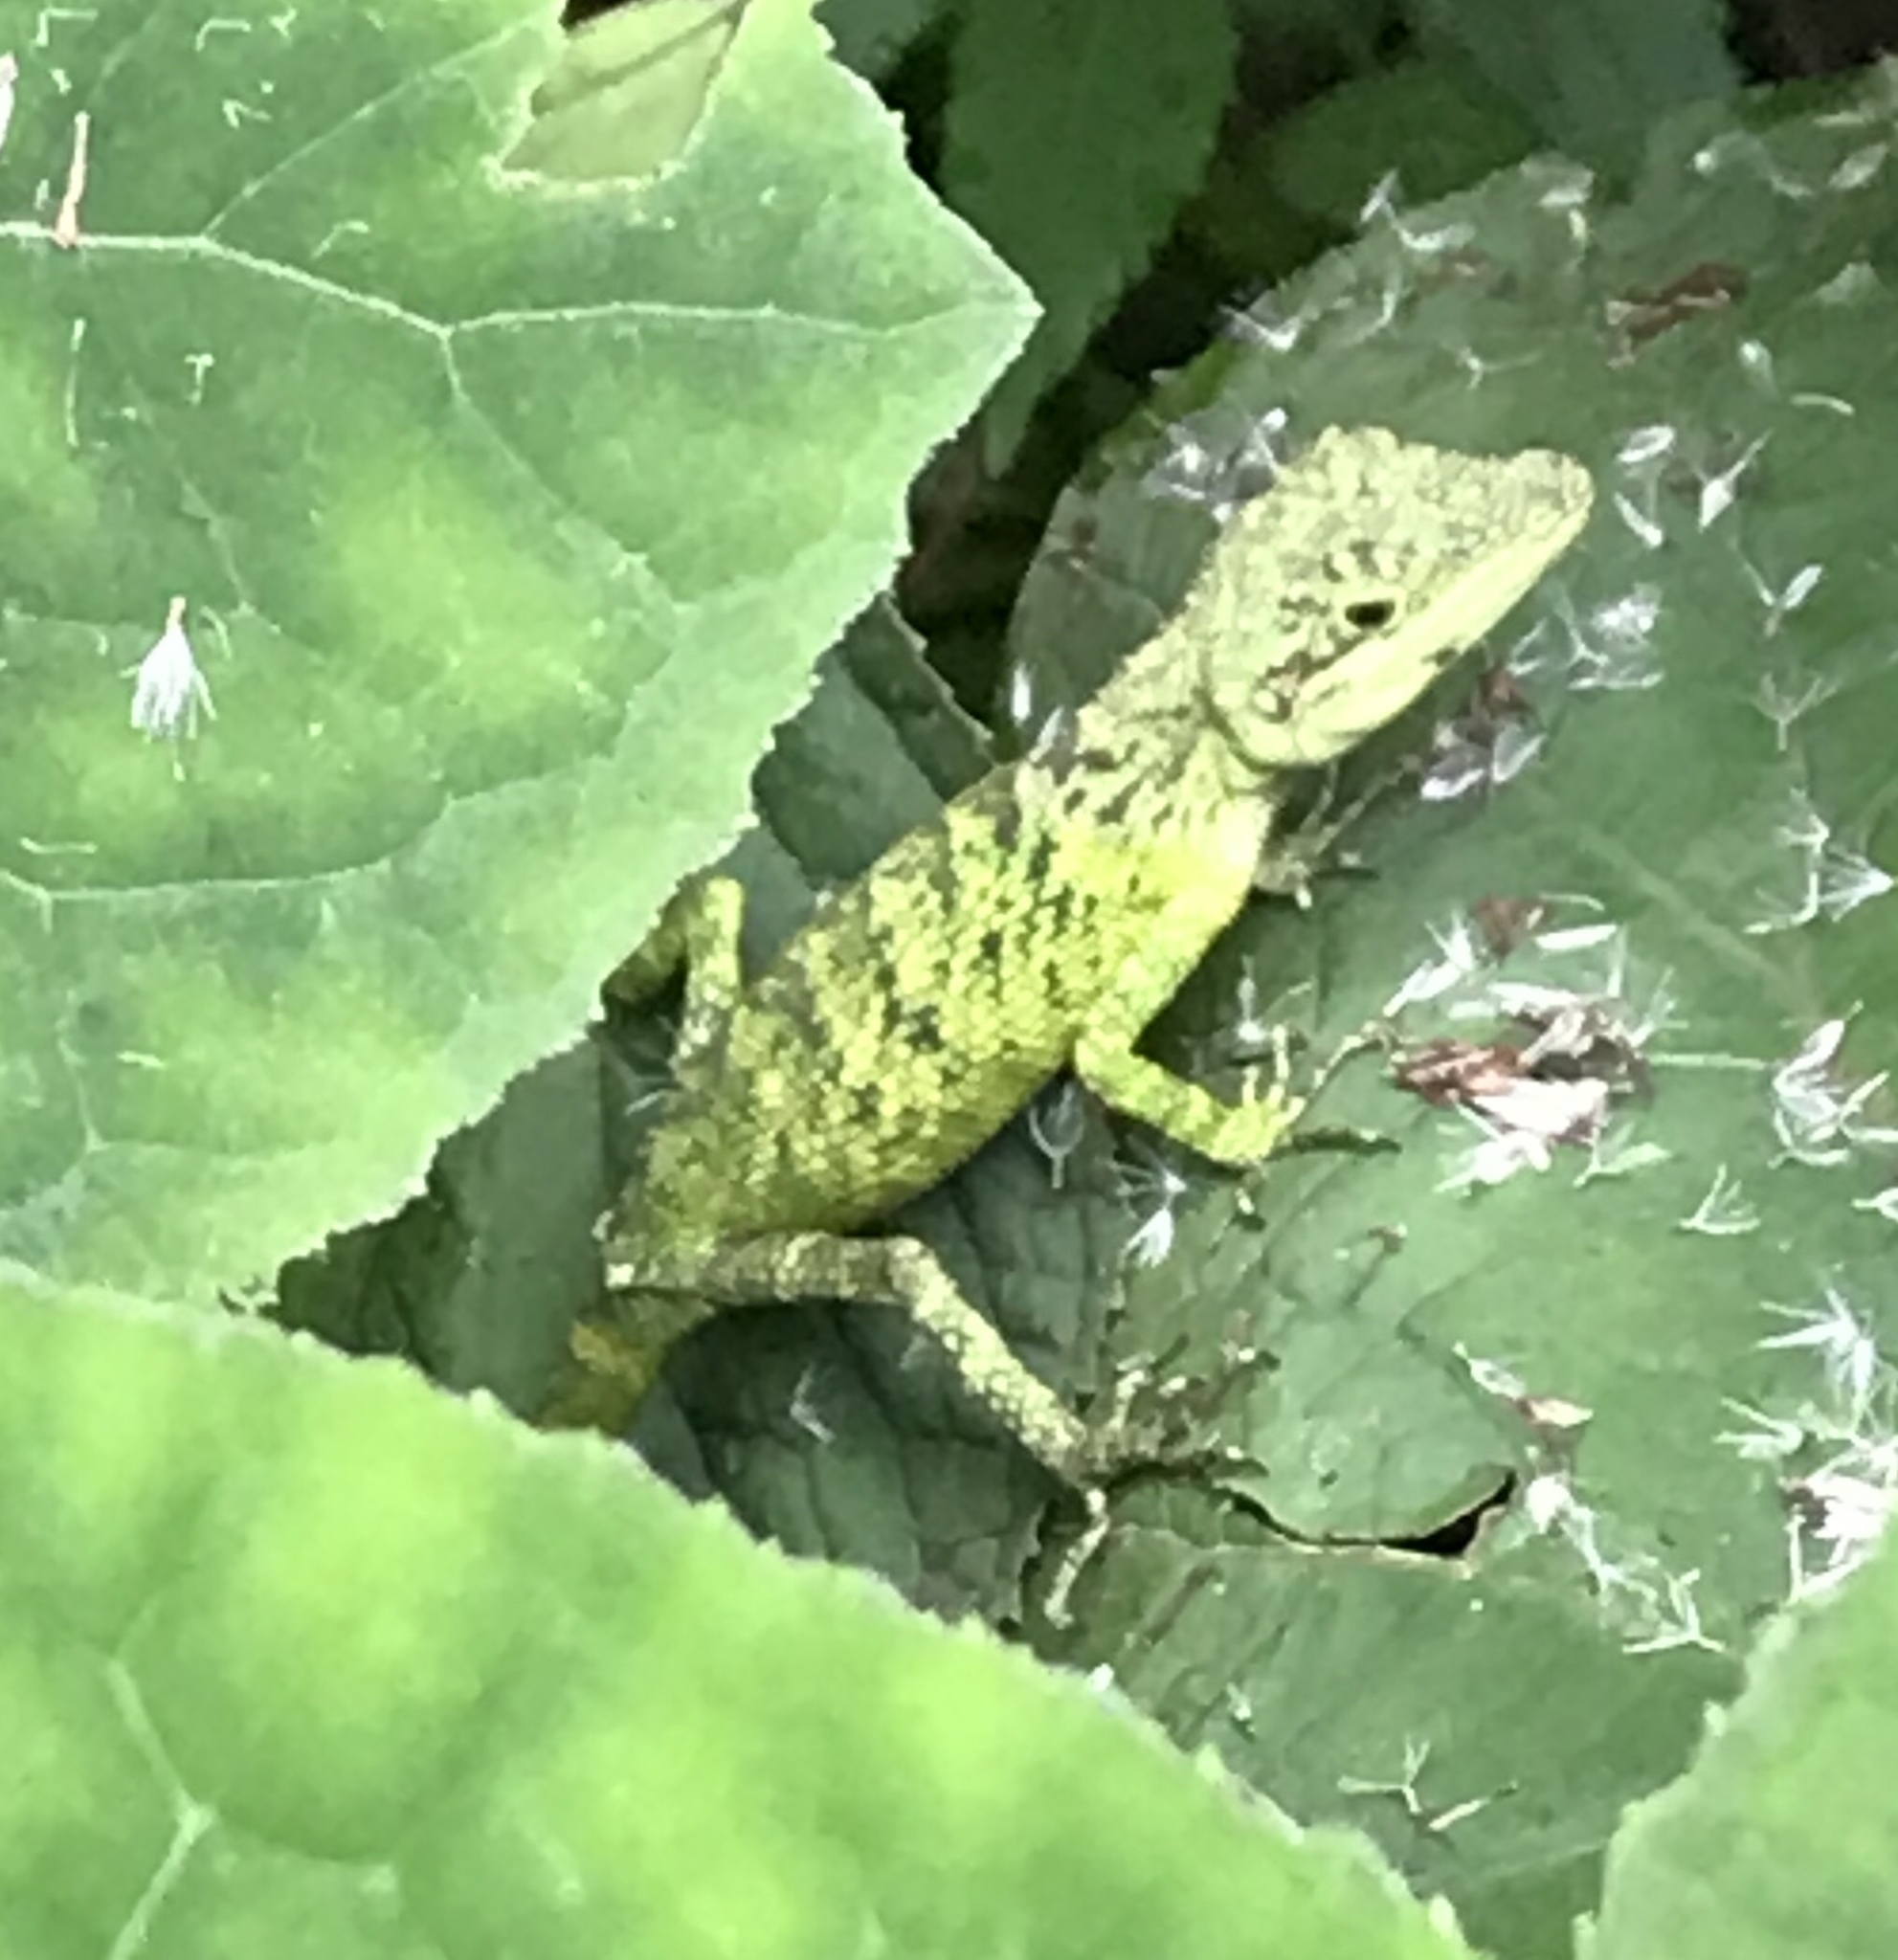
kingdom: Animalia
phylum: Chordata
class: Squamata
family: Agamidae
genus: Pseudocalotes
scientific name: Pseudocalotes tympanistriga
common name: Indonesian false bloodsucker
